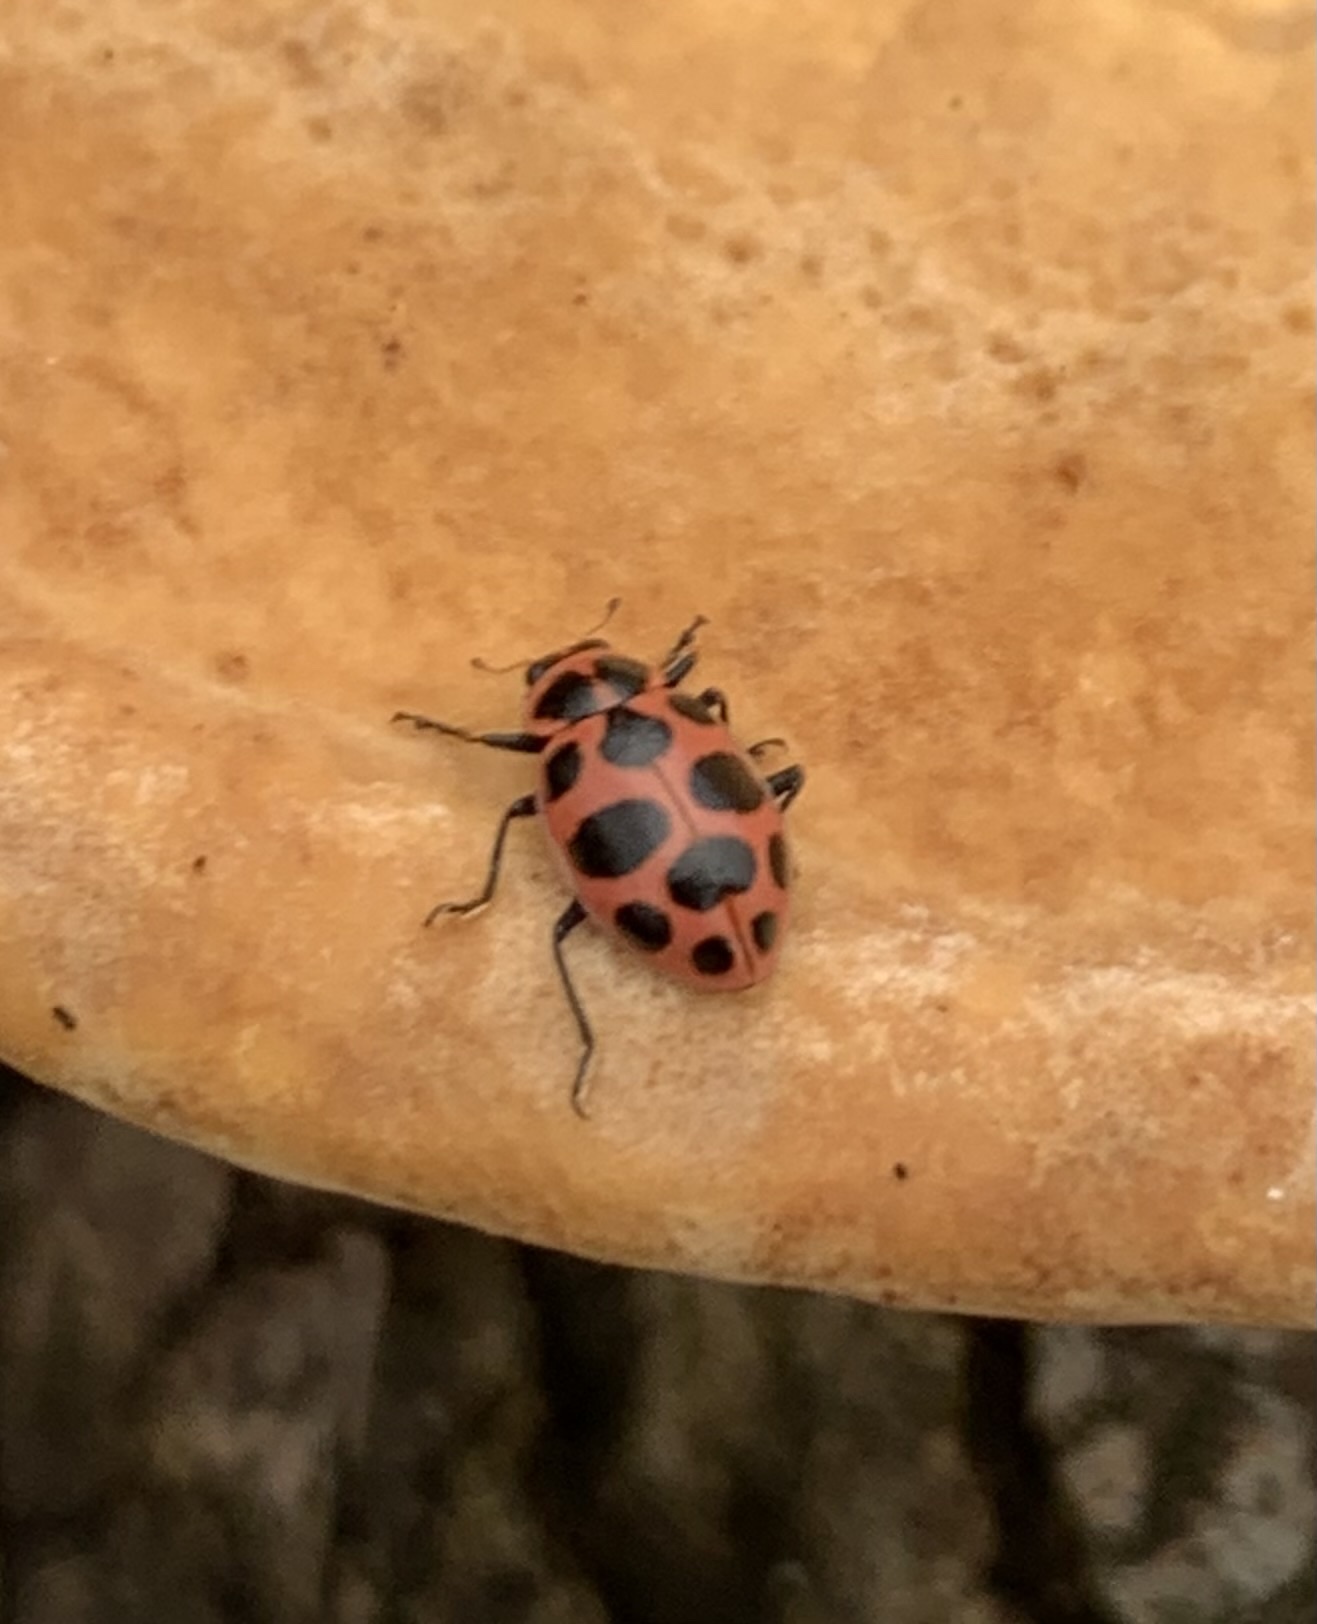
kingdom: Animalia
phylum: Arthropoda
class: Insecta
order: Coleoptera
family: Coccinellidae
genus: Coleomegilla
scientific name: Coleomegilla maculata
